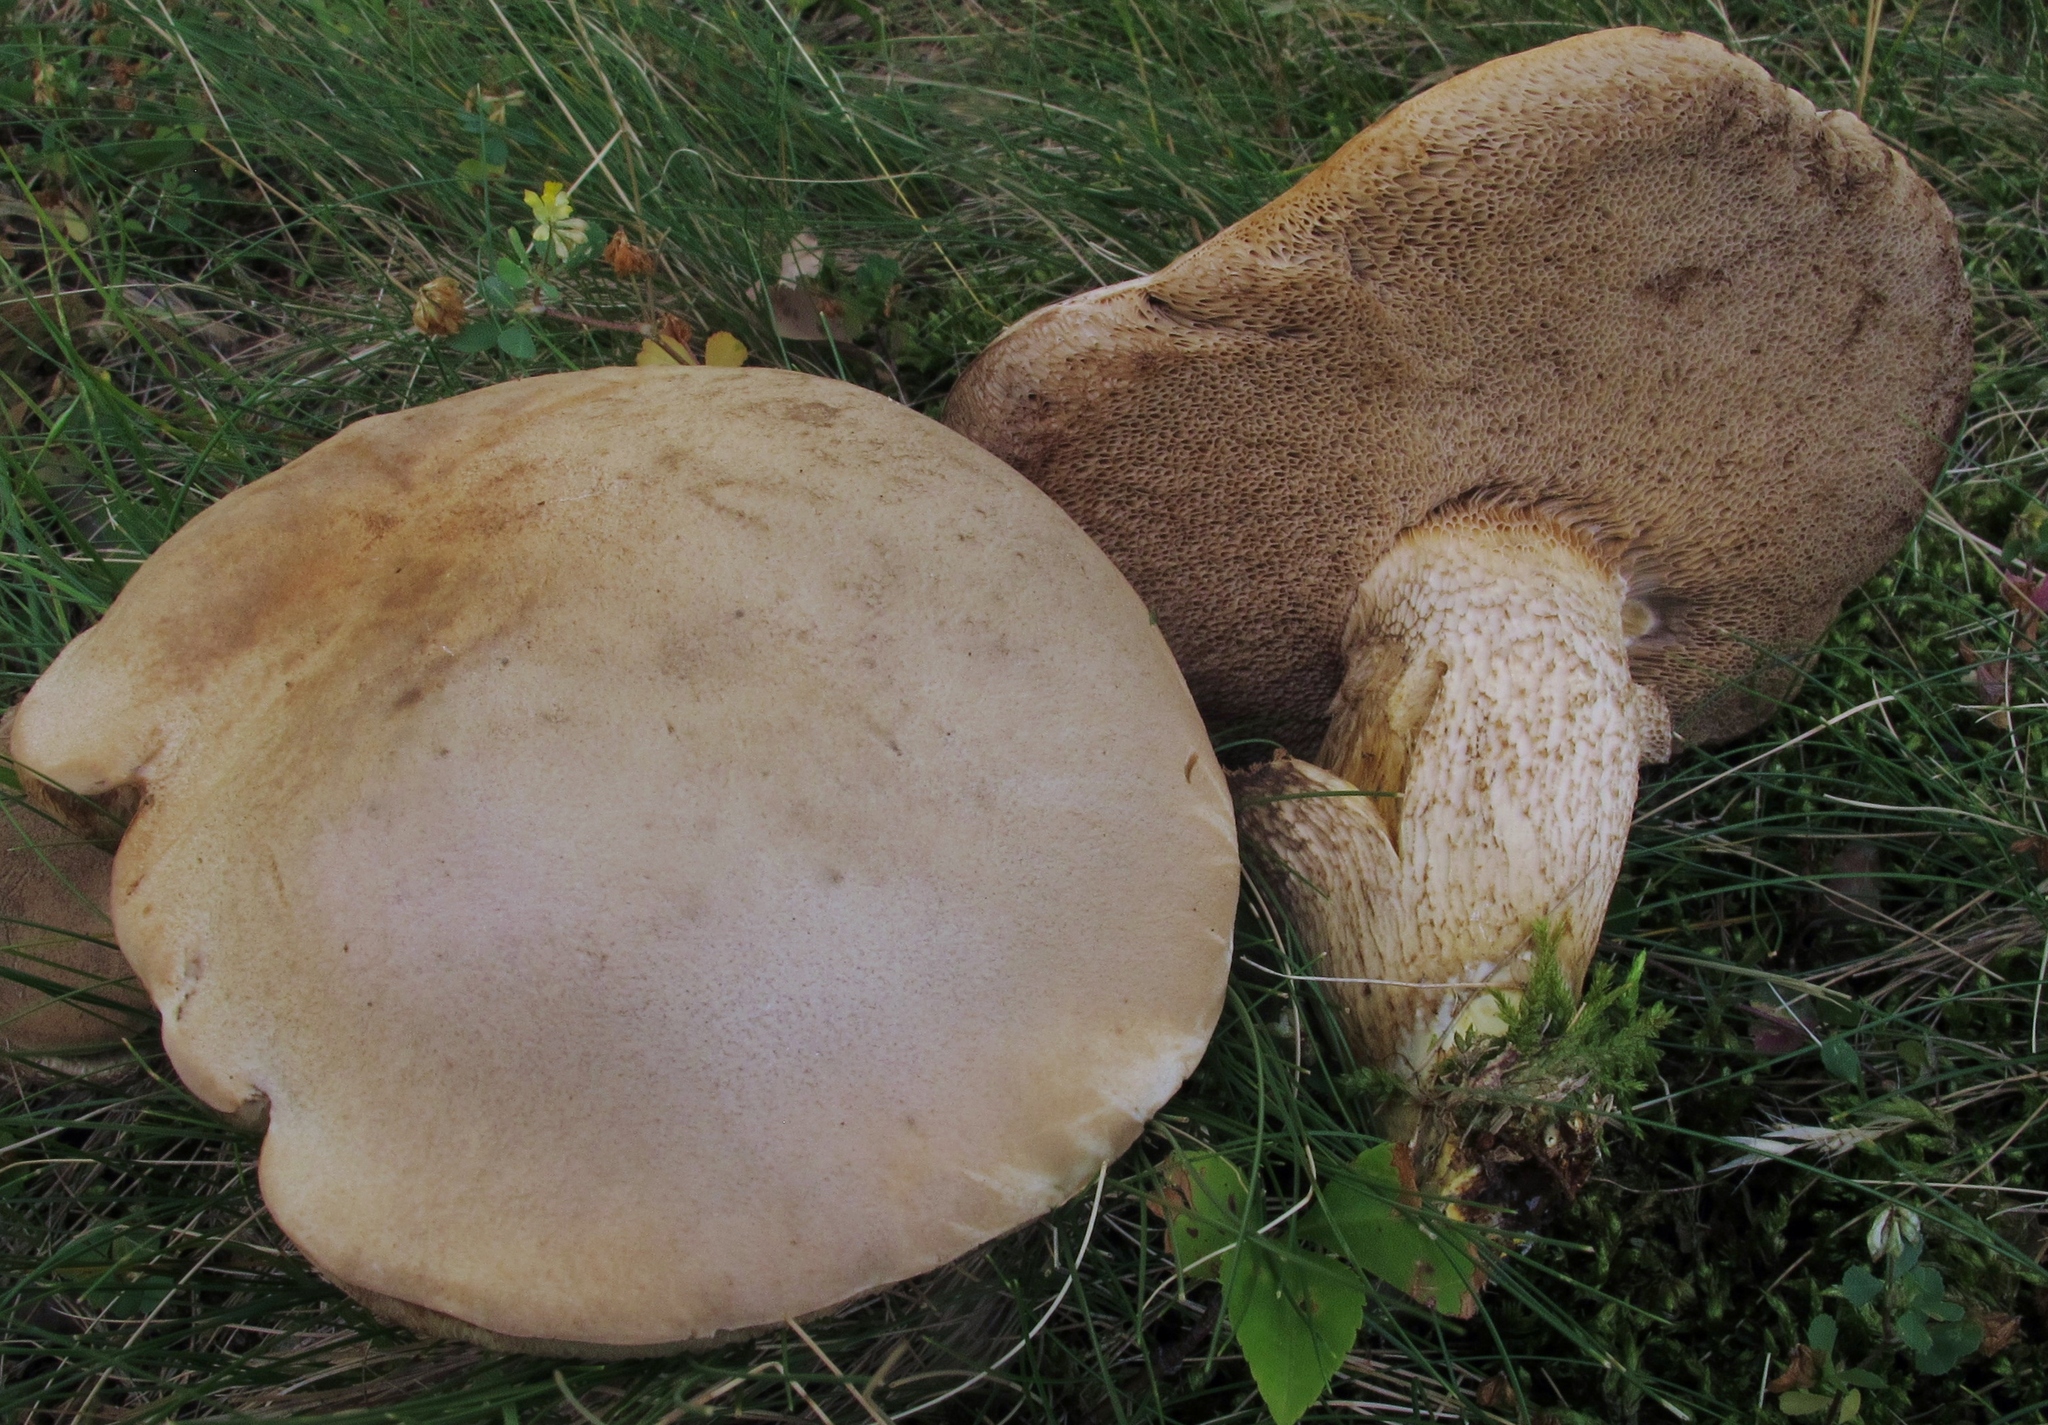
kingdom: Fungi
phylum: Basidiomycota
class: Agaricomycetes
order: Boletales
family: Boletaceae
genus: Retiboletus
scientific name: Retiboletus griseus
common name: Grey bolete
